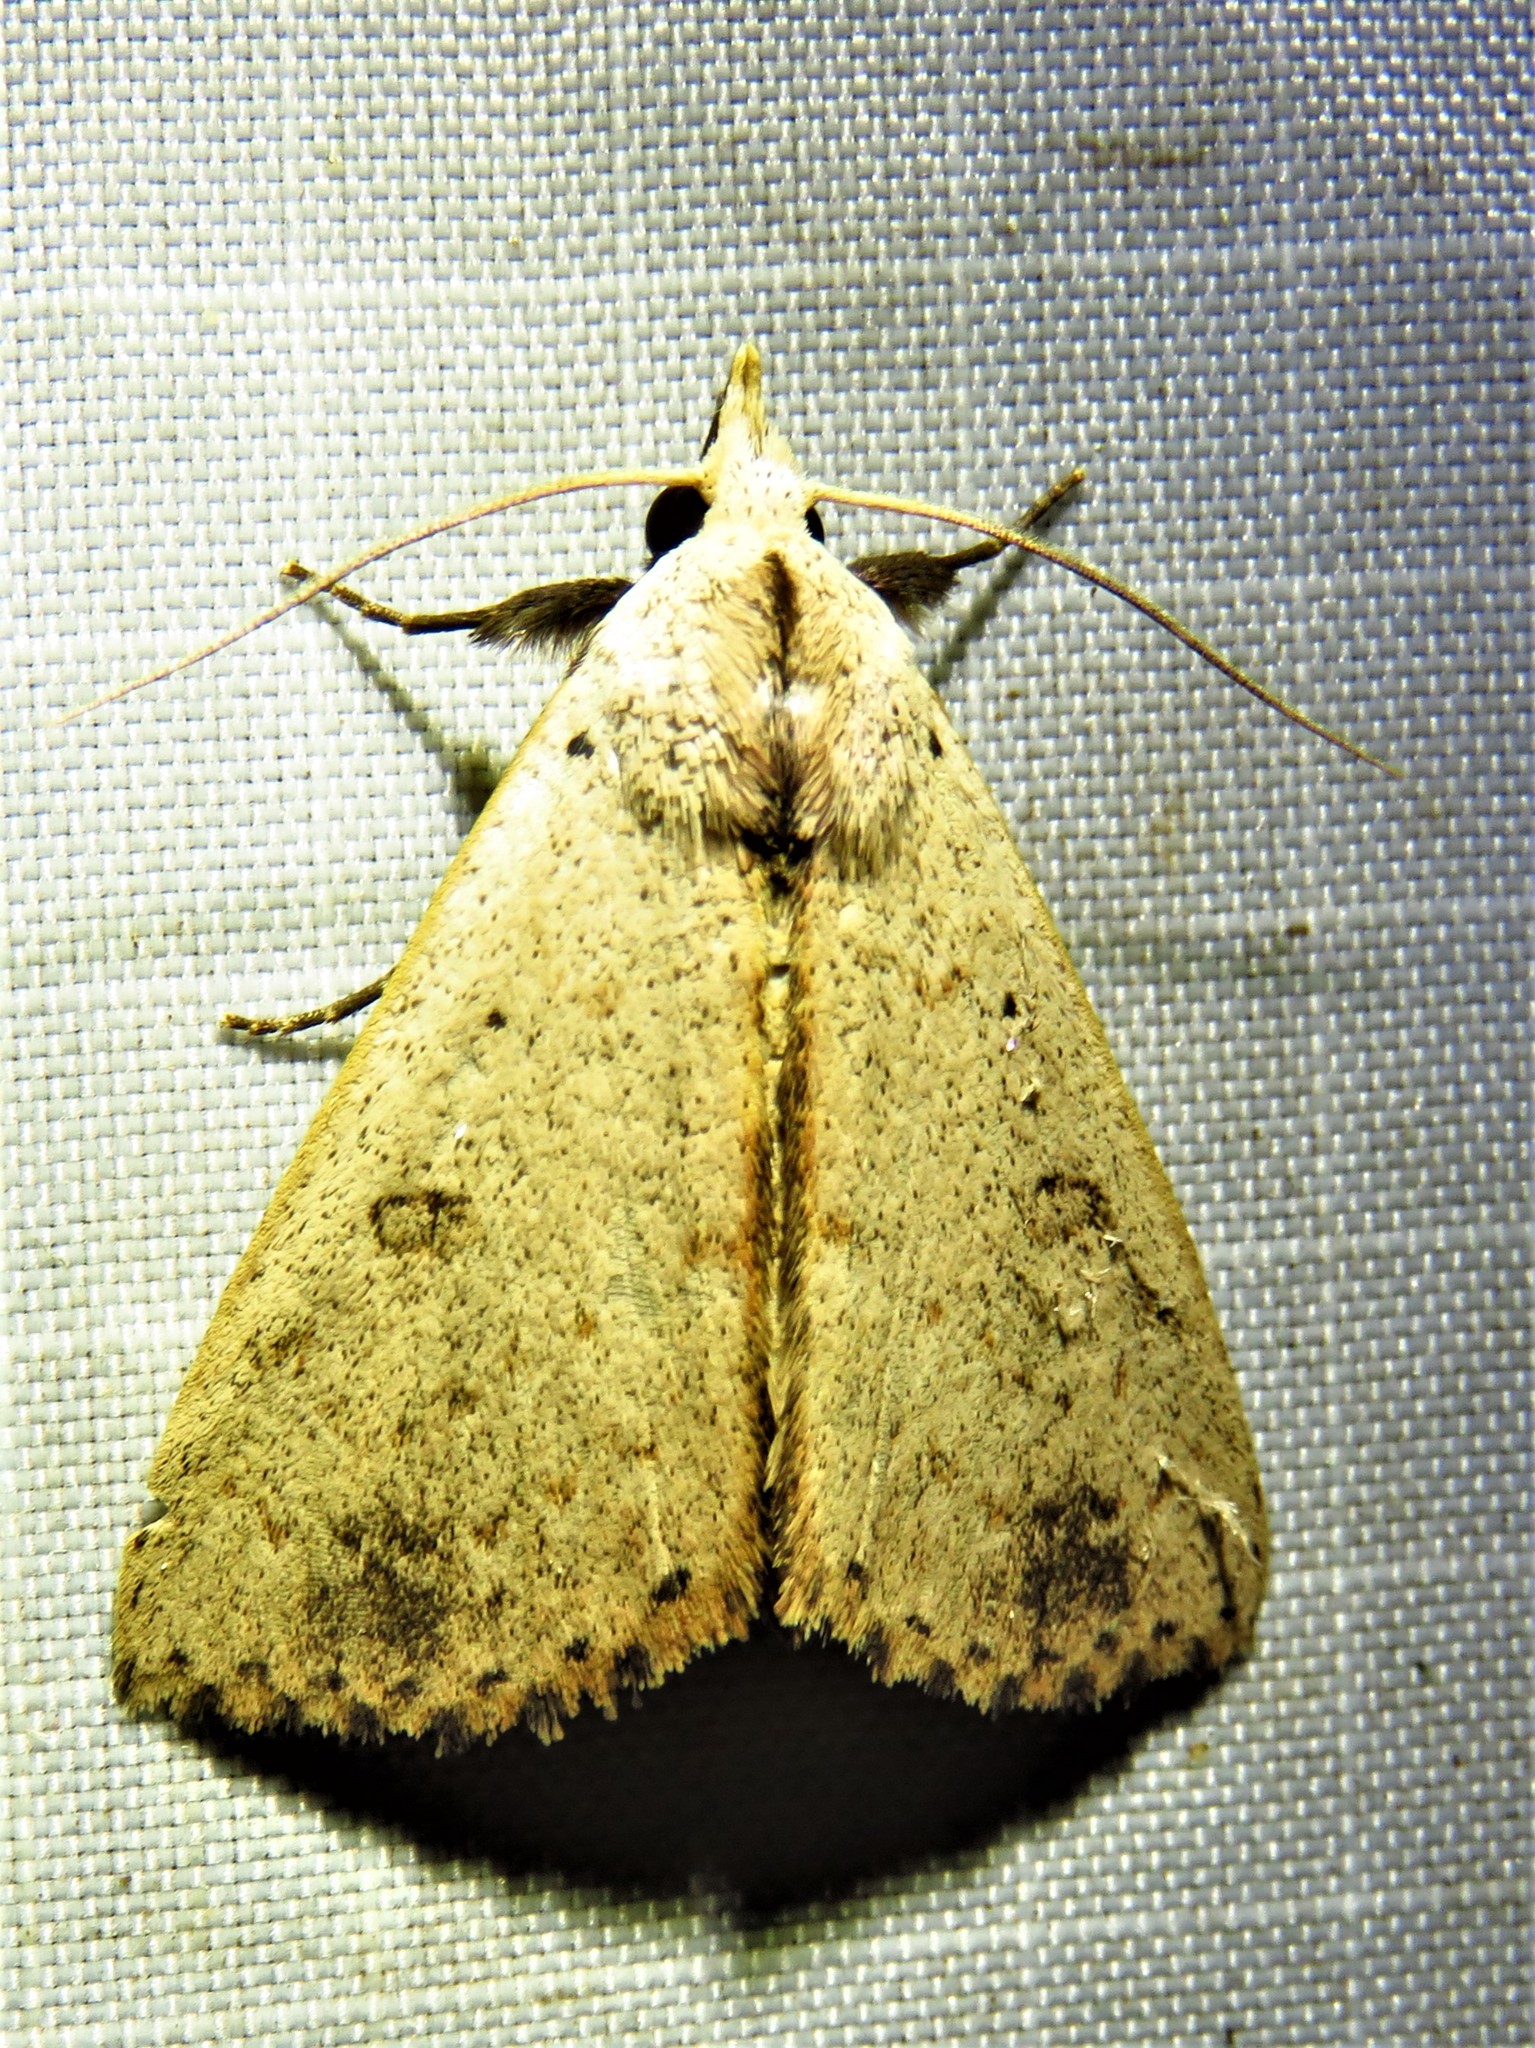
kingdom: Animalia
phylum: Arthropoda
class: Insecta
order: Lepidoptera
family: Erebidae
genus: Scolecocampa
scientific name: Scolecocampa liburna
